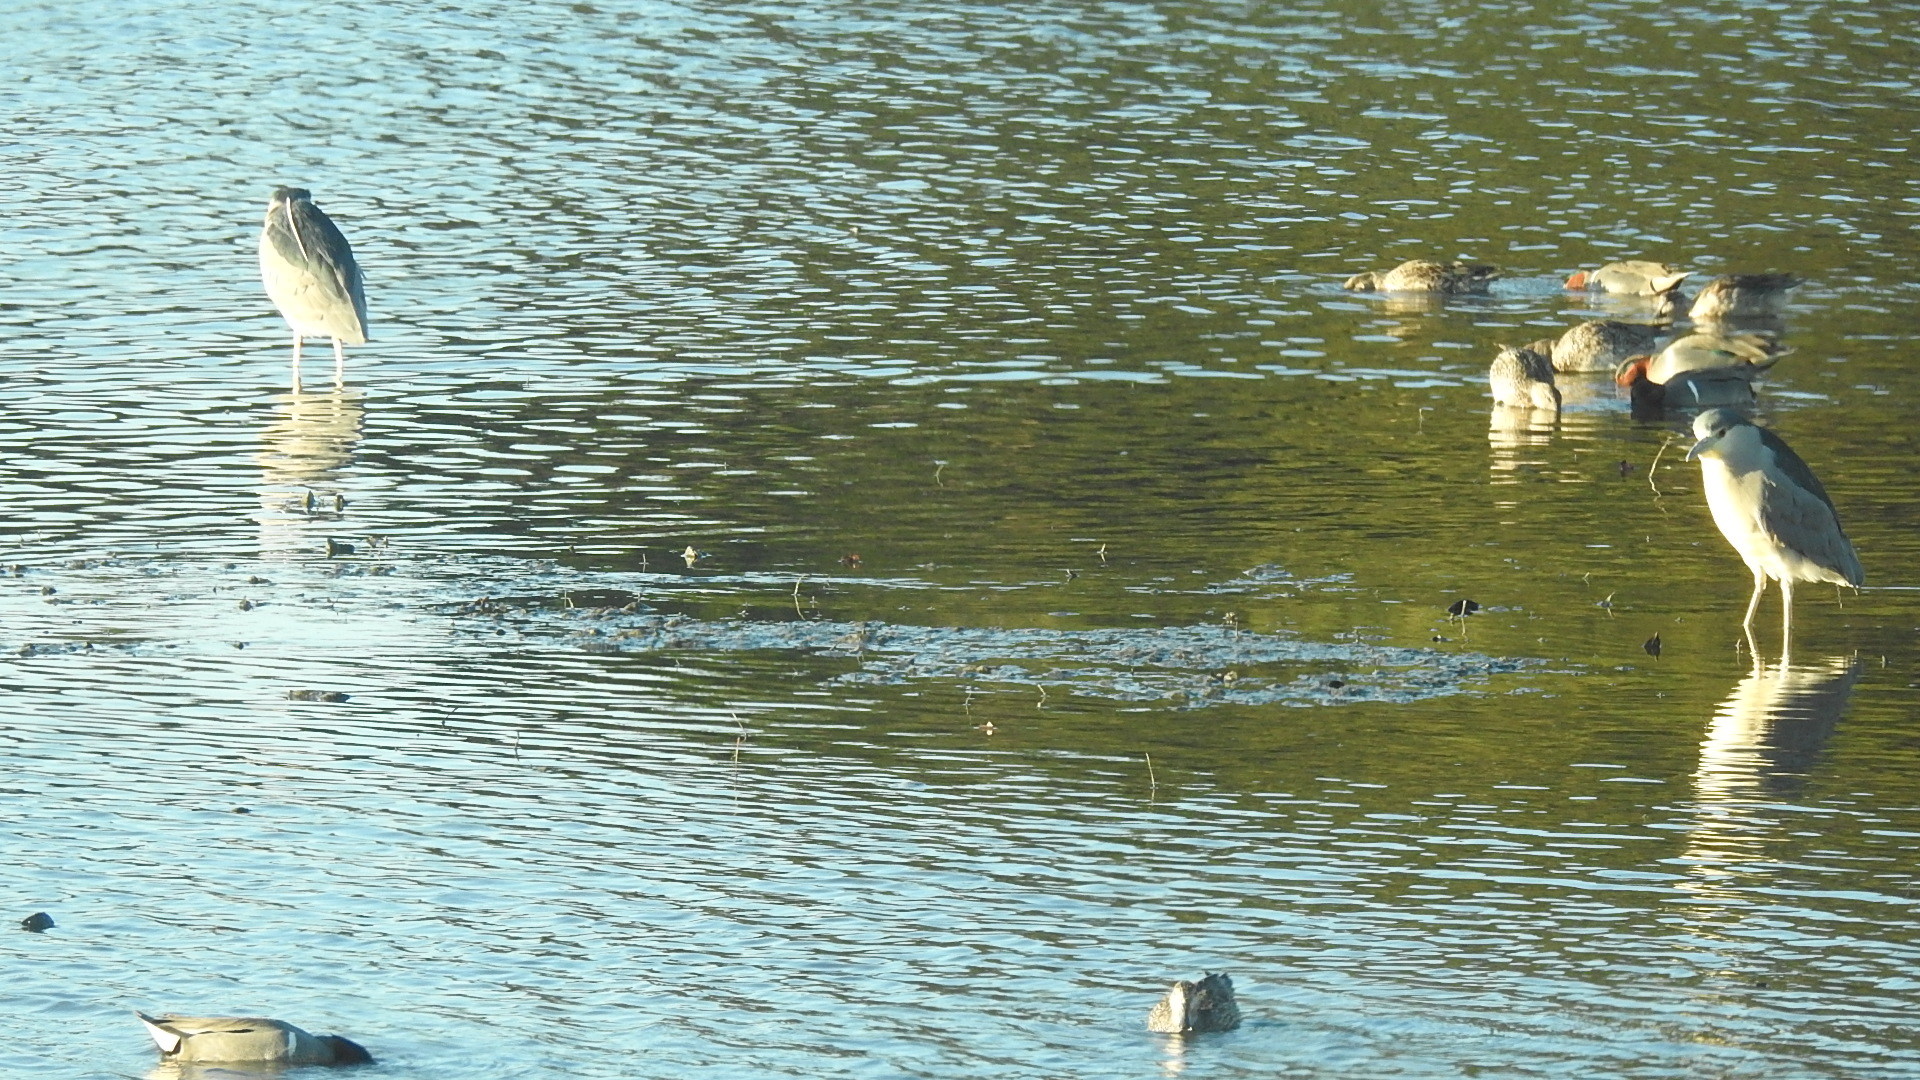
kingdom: Animalia
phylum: Chordata
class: Aves
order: Pelecaniformes
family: Ardeidae
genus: Nycticorax
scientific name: Nycticorax nycticorax
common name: Black-crowned night heron
